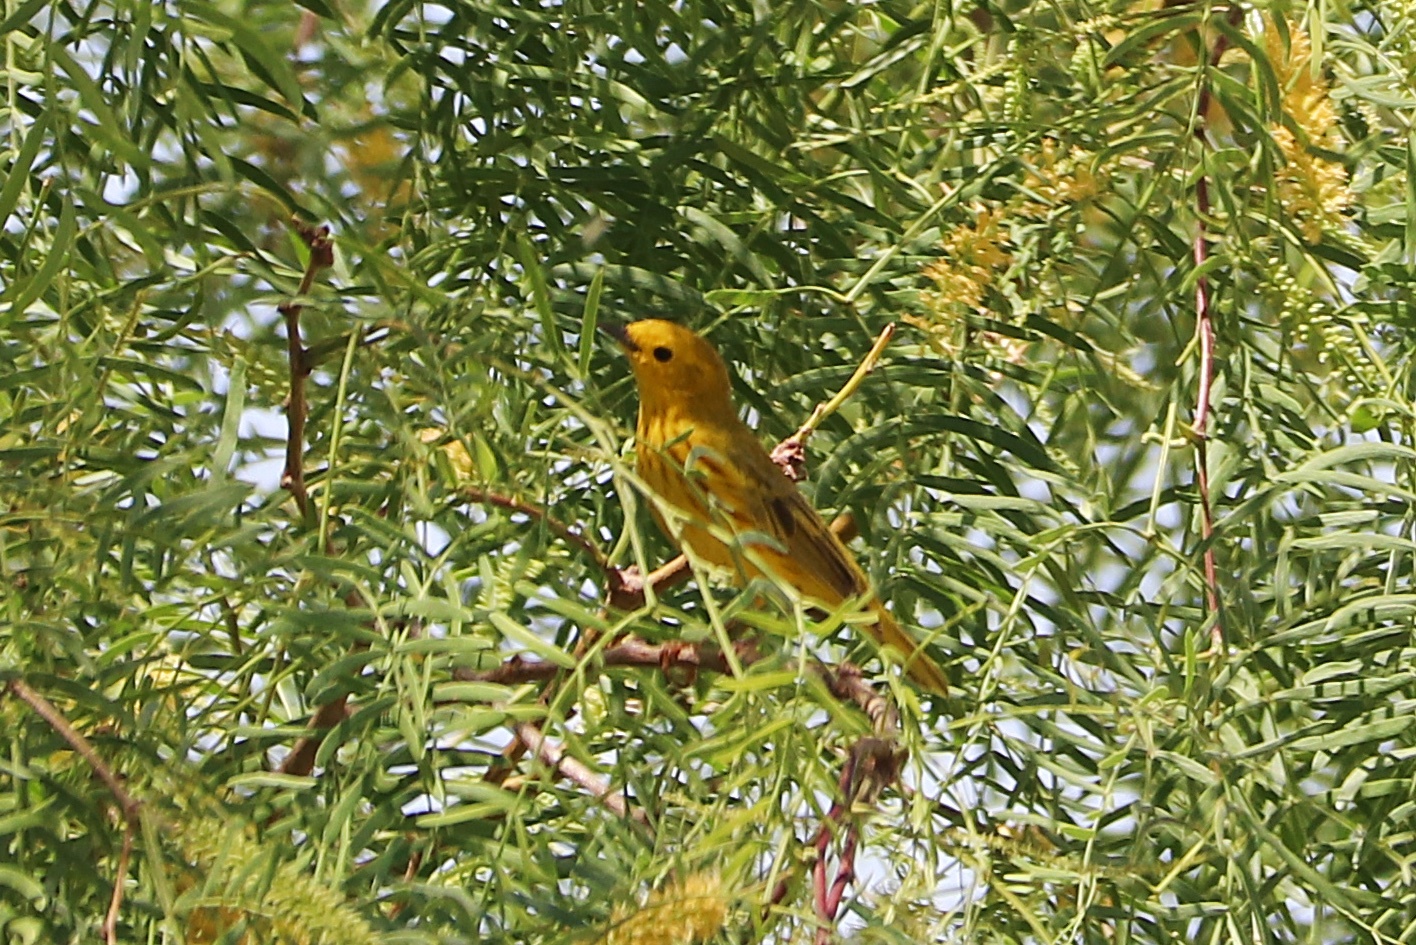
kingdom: Animalia
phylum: Chordata
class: Aves
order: Passeriformes
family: Parulidae
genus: Setophaga
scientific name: Setophaga petechia
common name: Yellow warbler
